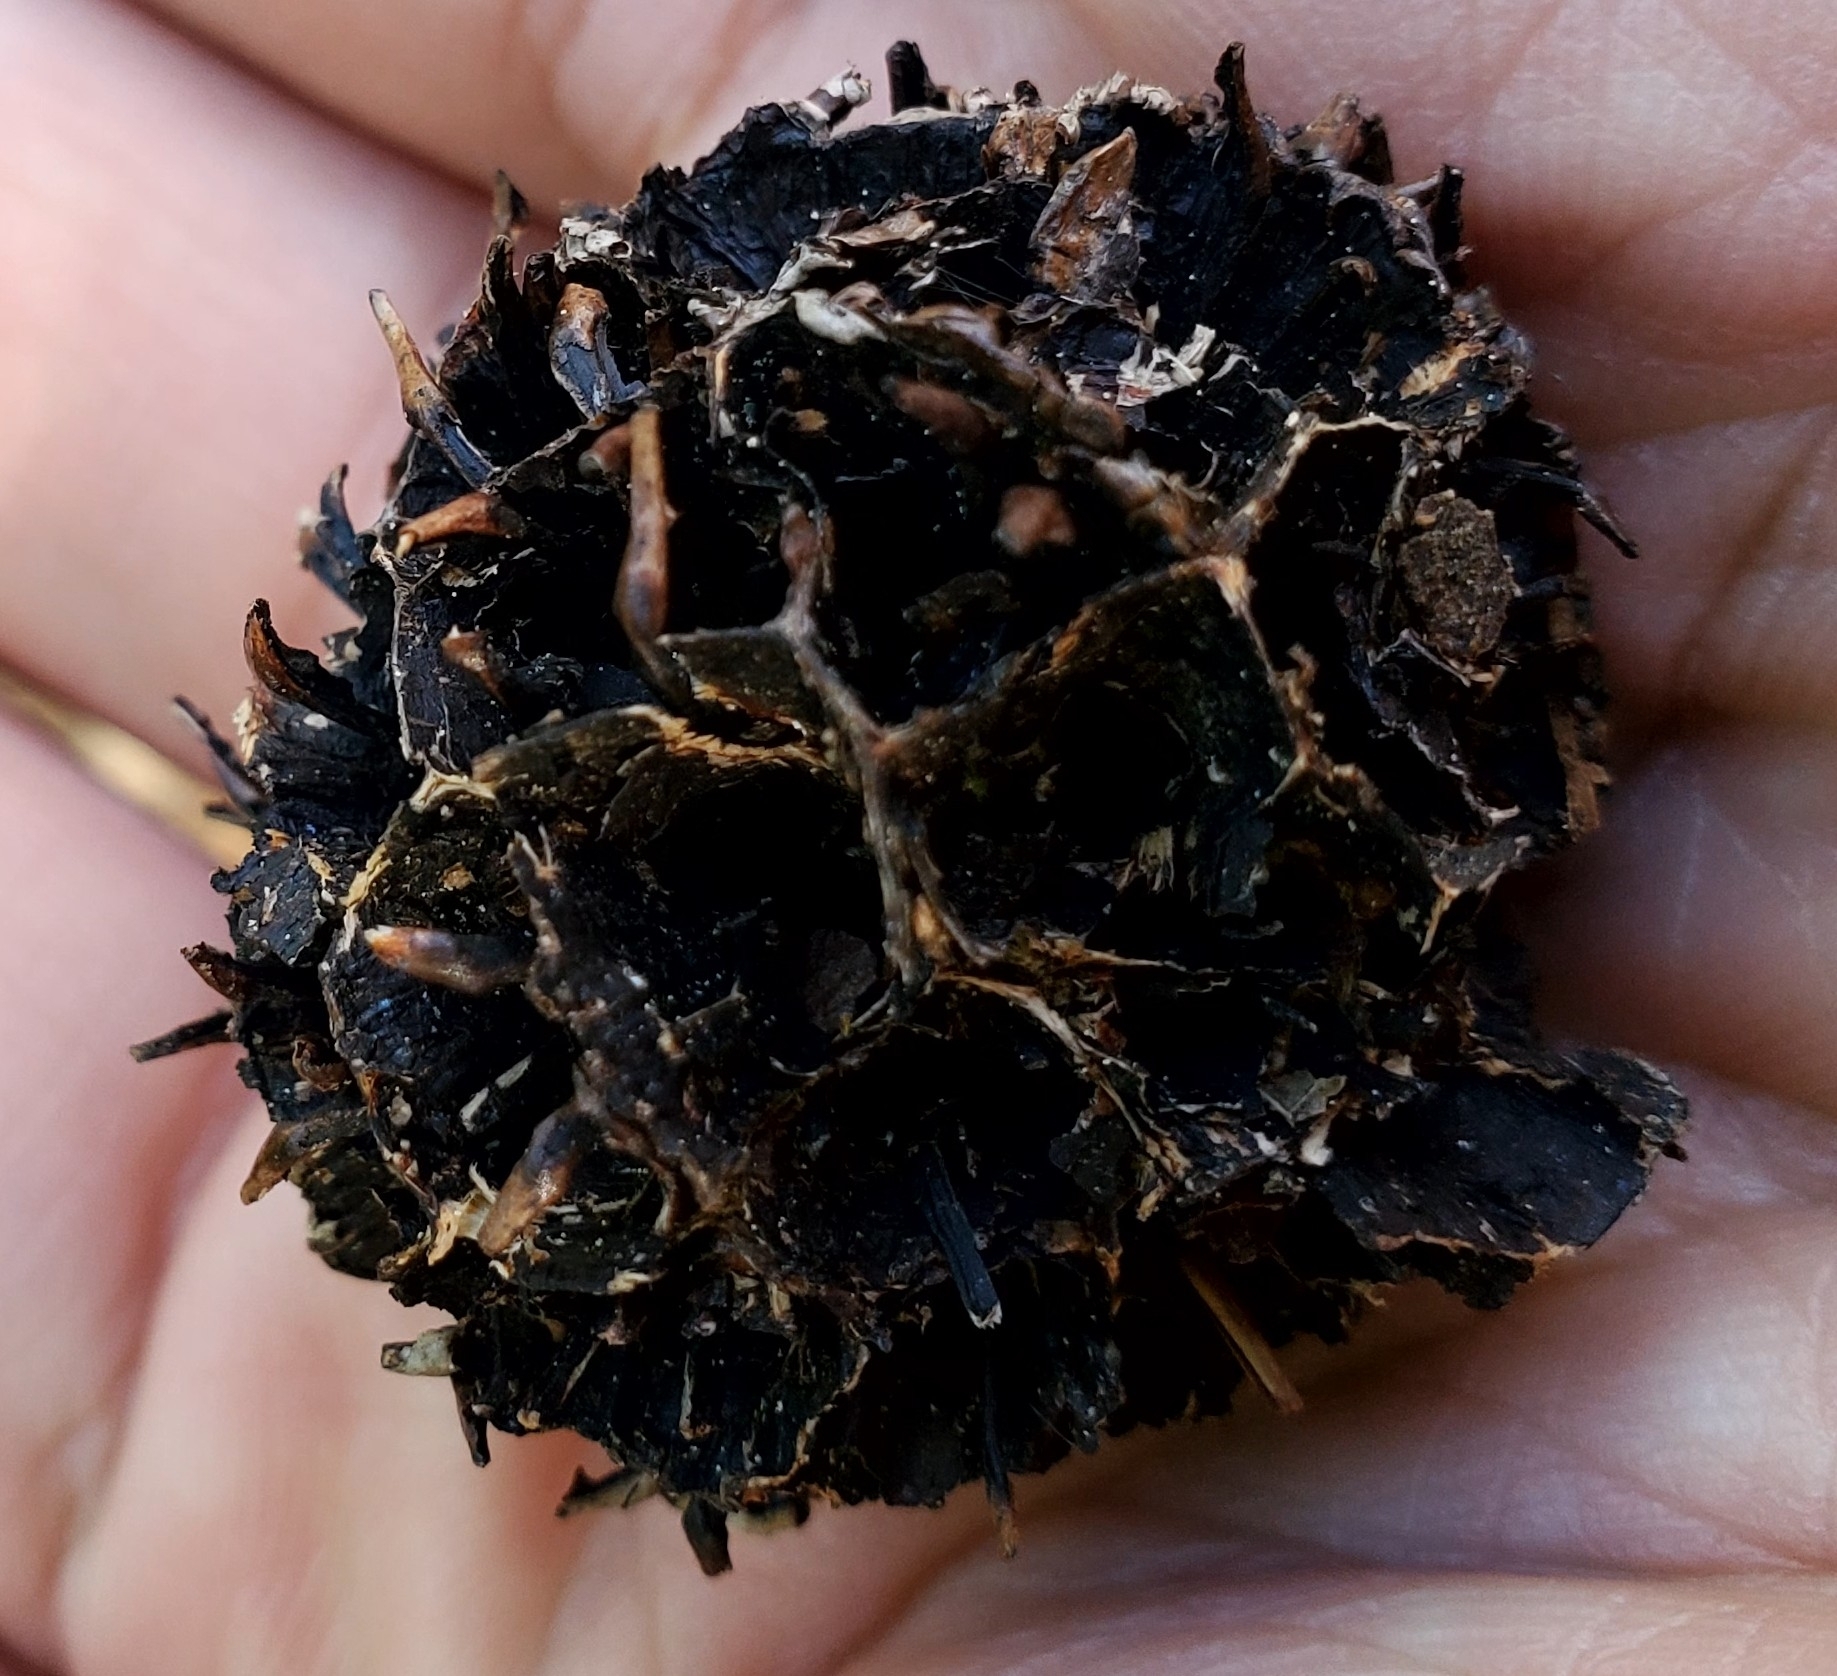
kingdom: Fungi
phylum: Ascomycota
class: Sordariomycetes
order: Xylariales
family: Xylariaceae
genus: Xylaria
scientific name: Xylaria liquidambaris
